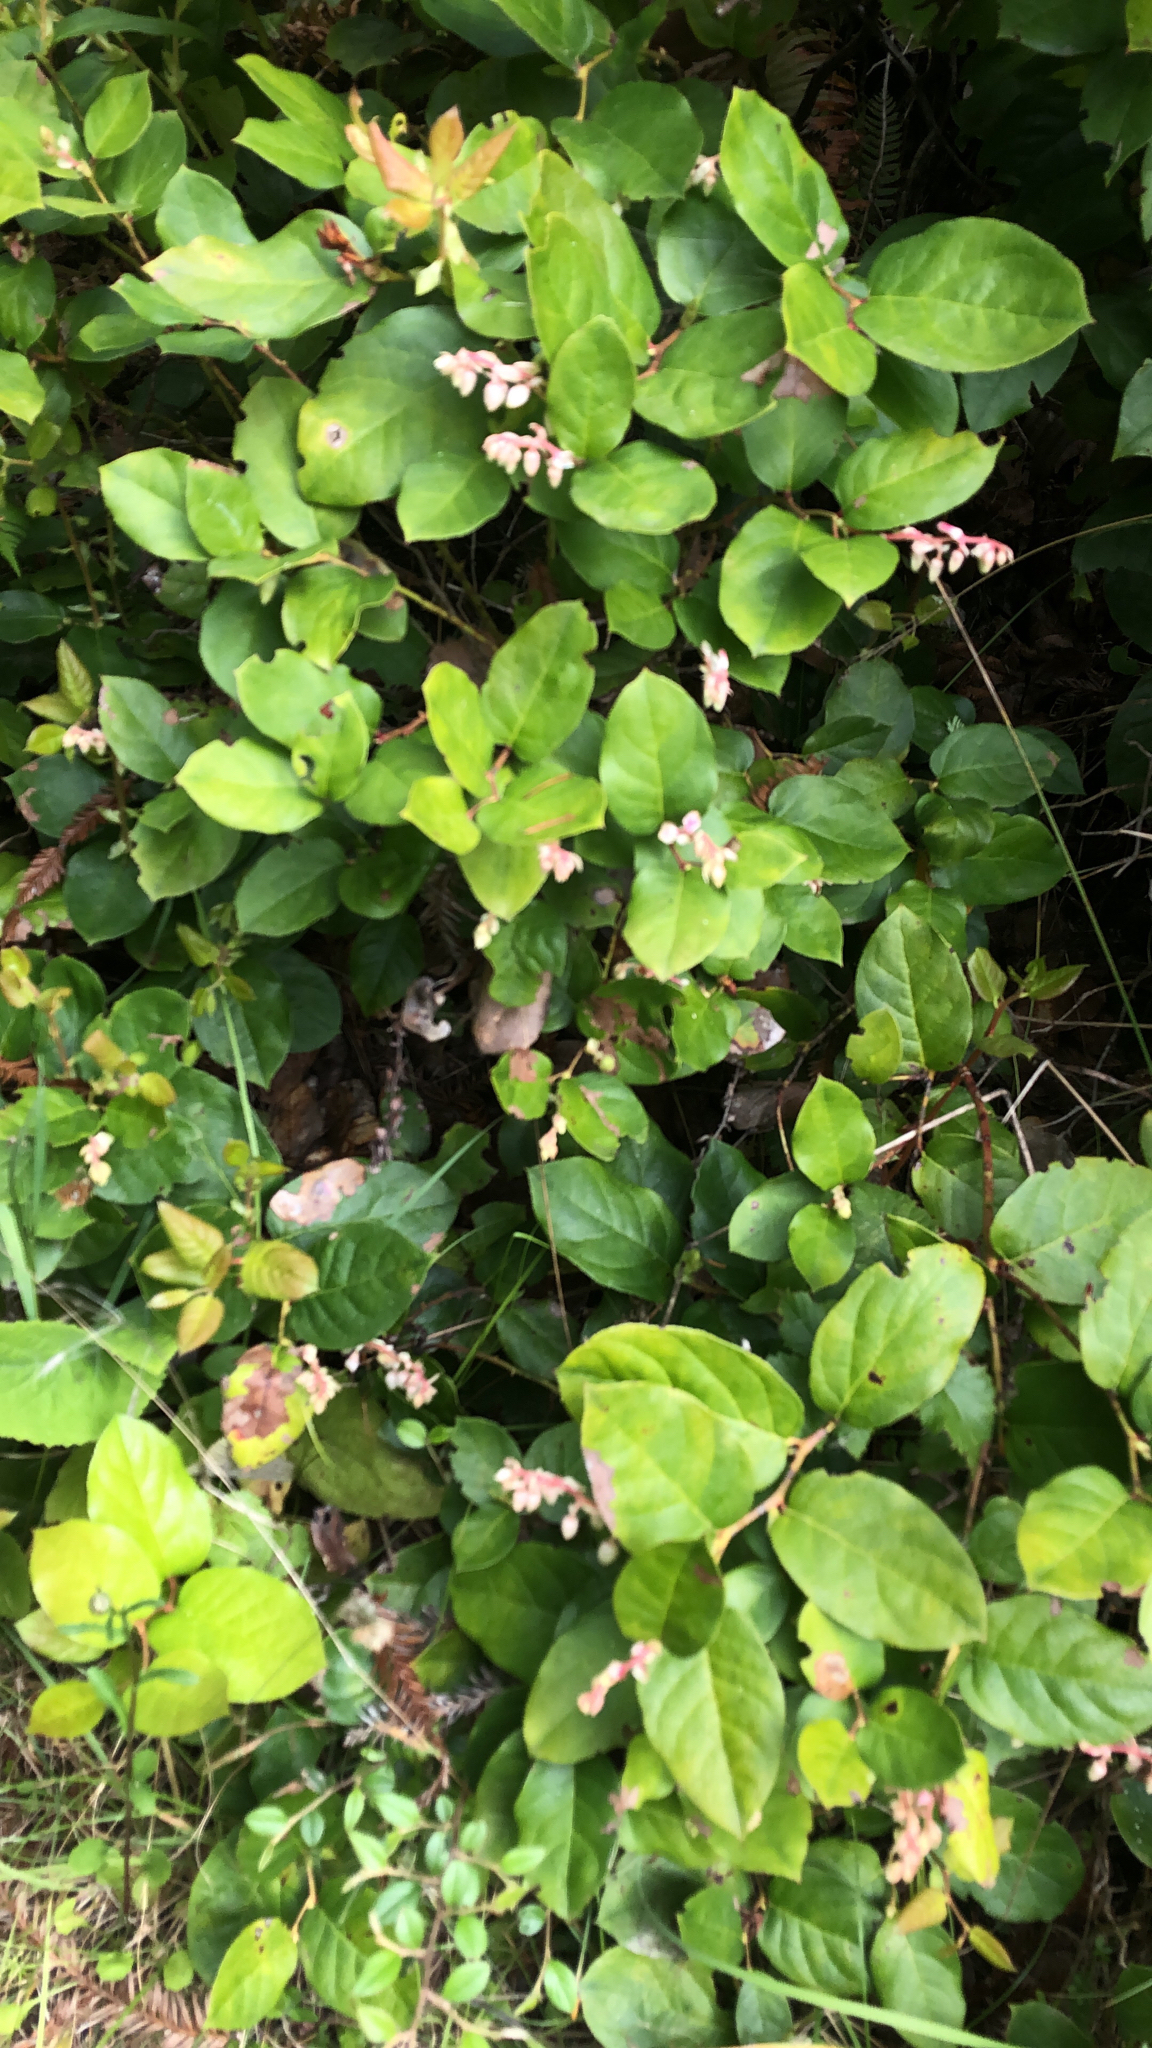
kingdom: Plantae
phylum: Tracheophyta
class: Magnoliopsida
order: Ericales
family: Ericaceae
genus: Gaultheria
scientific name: Gaultheria shallon
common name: Shallon
